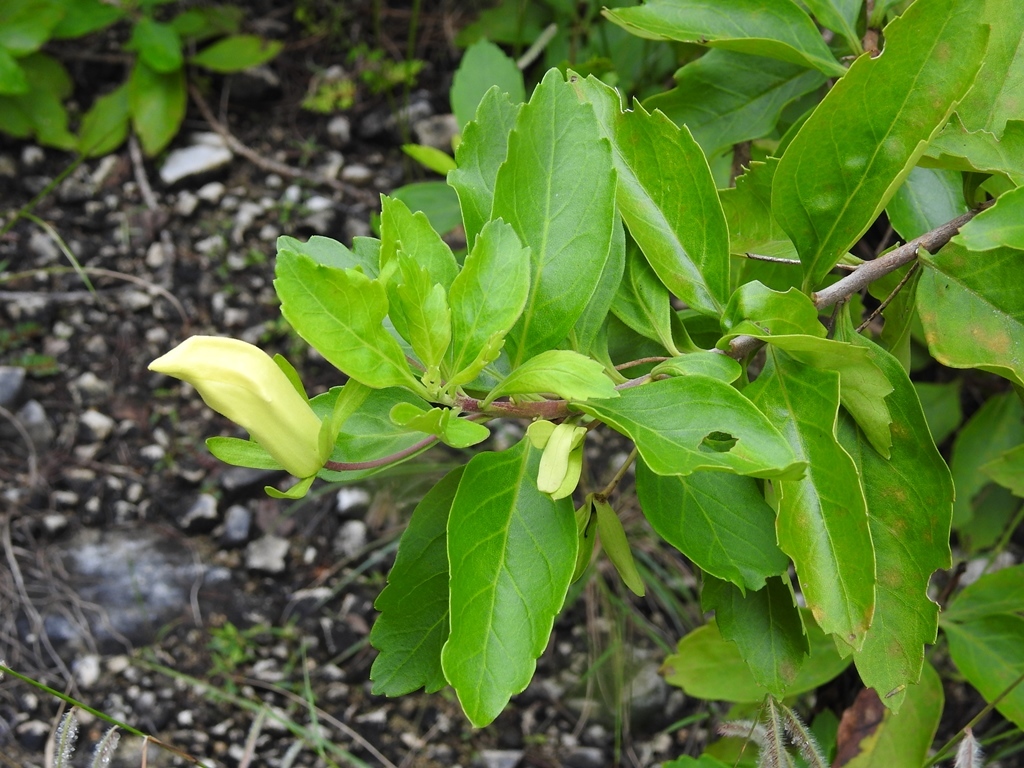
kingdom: Plantae
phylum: Tracheophyta
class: Magnoliopsida
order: Lamiales
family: Scrophulariaceae
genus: Eremogeton
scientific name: Eremogeton grandiflorus
